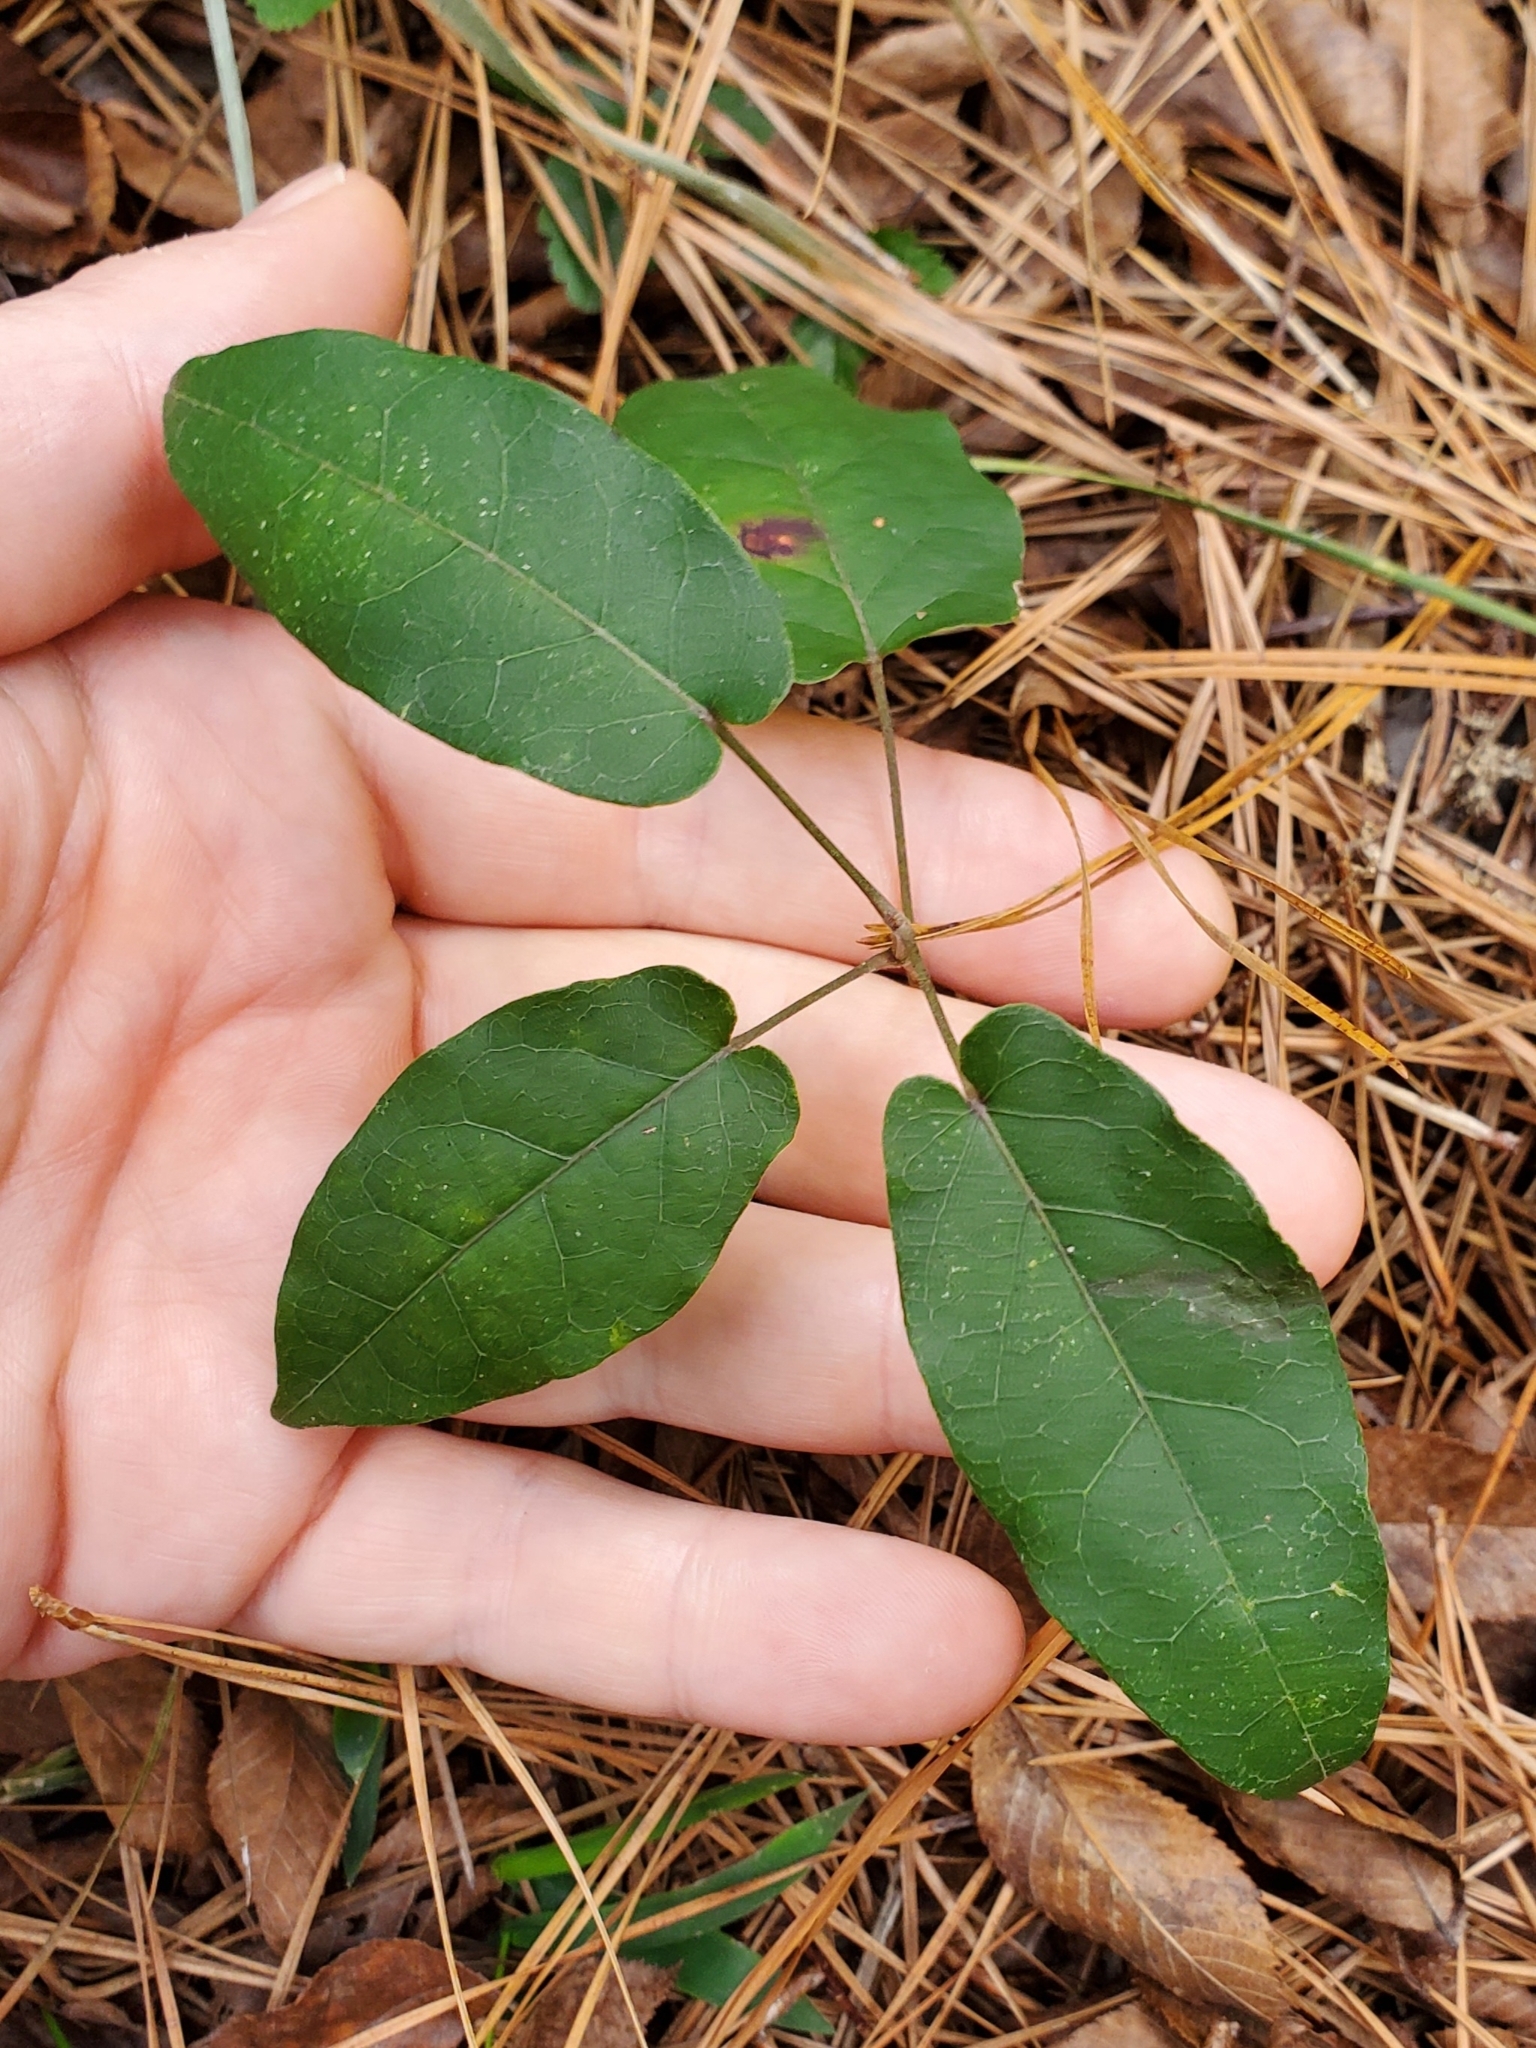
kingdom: Plantae
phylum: Tracheophyta
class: Magnoliopsida
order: Lamiales
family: Bignoniaceae
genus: Bignonia
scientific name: Bignonia capreolata
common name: Crossvine
